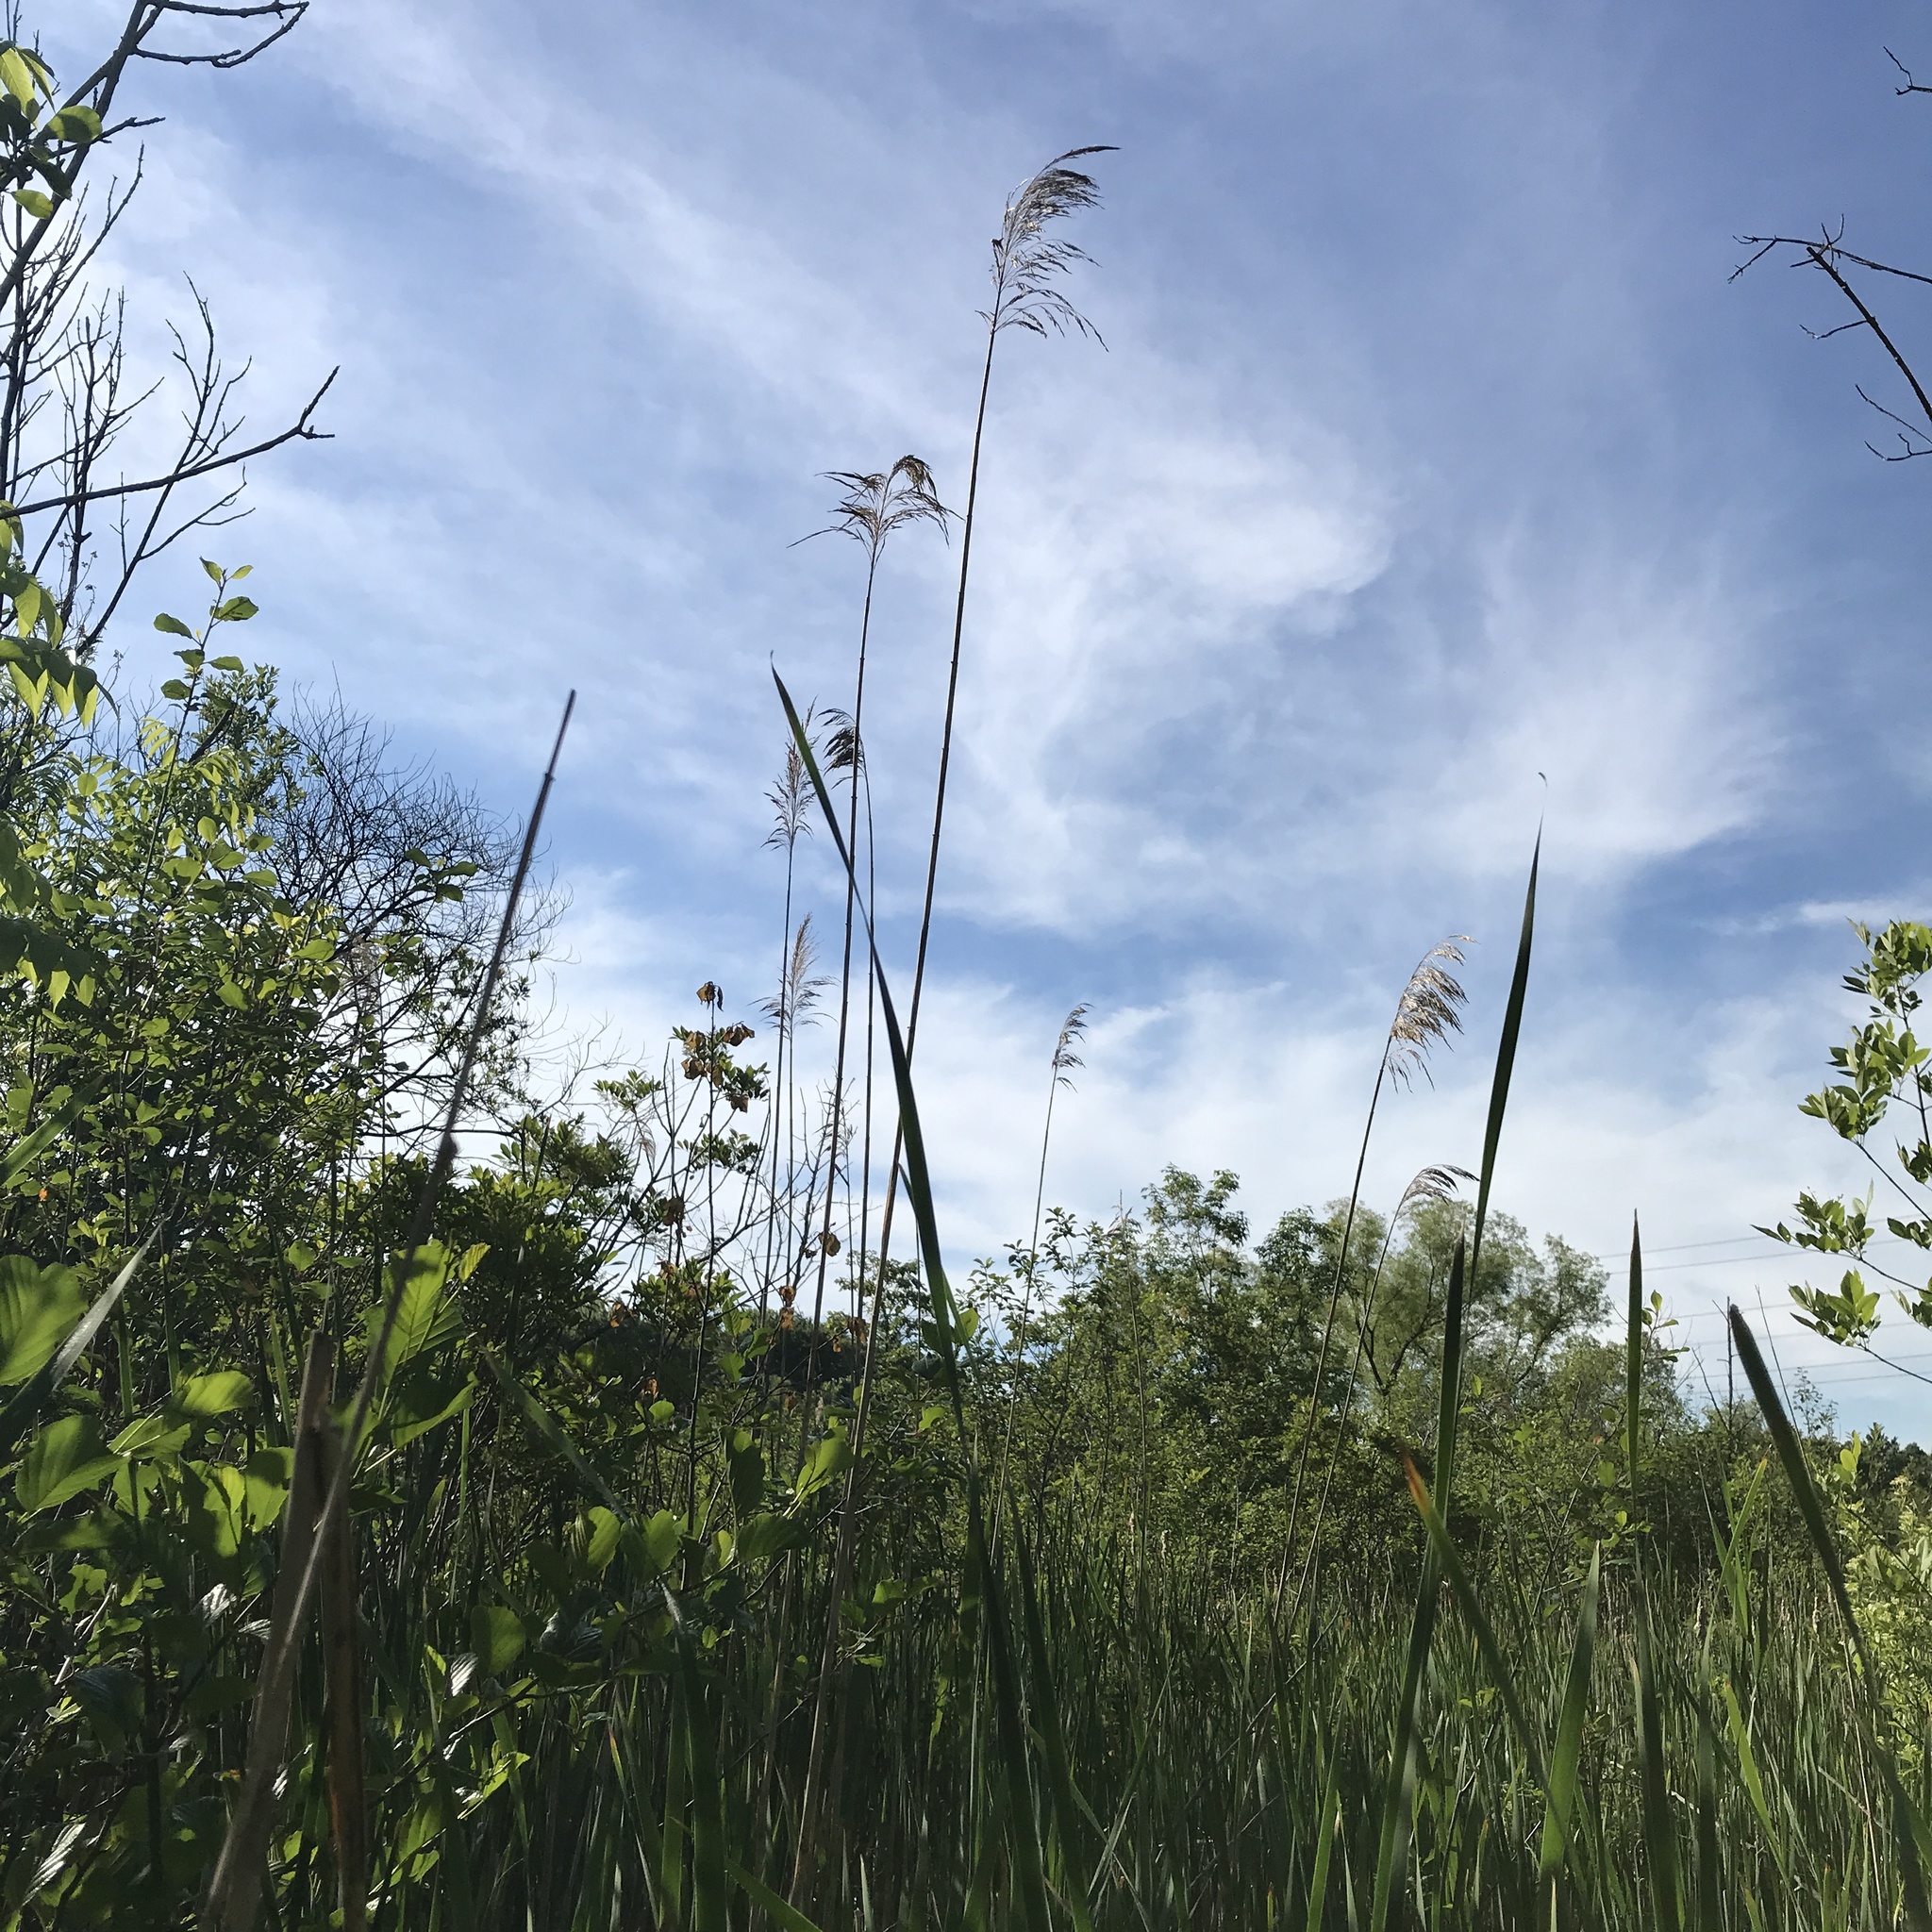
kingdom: Plantae
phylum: Tracheophyta
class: Liliopsida
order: Poales
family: Poaceae
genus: Phragmites
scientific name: Phragmites australis
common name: Common reed
